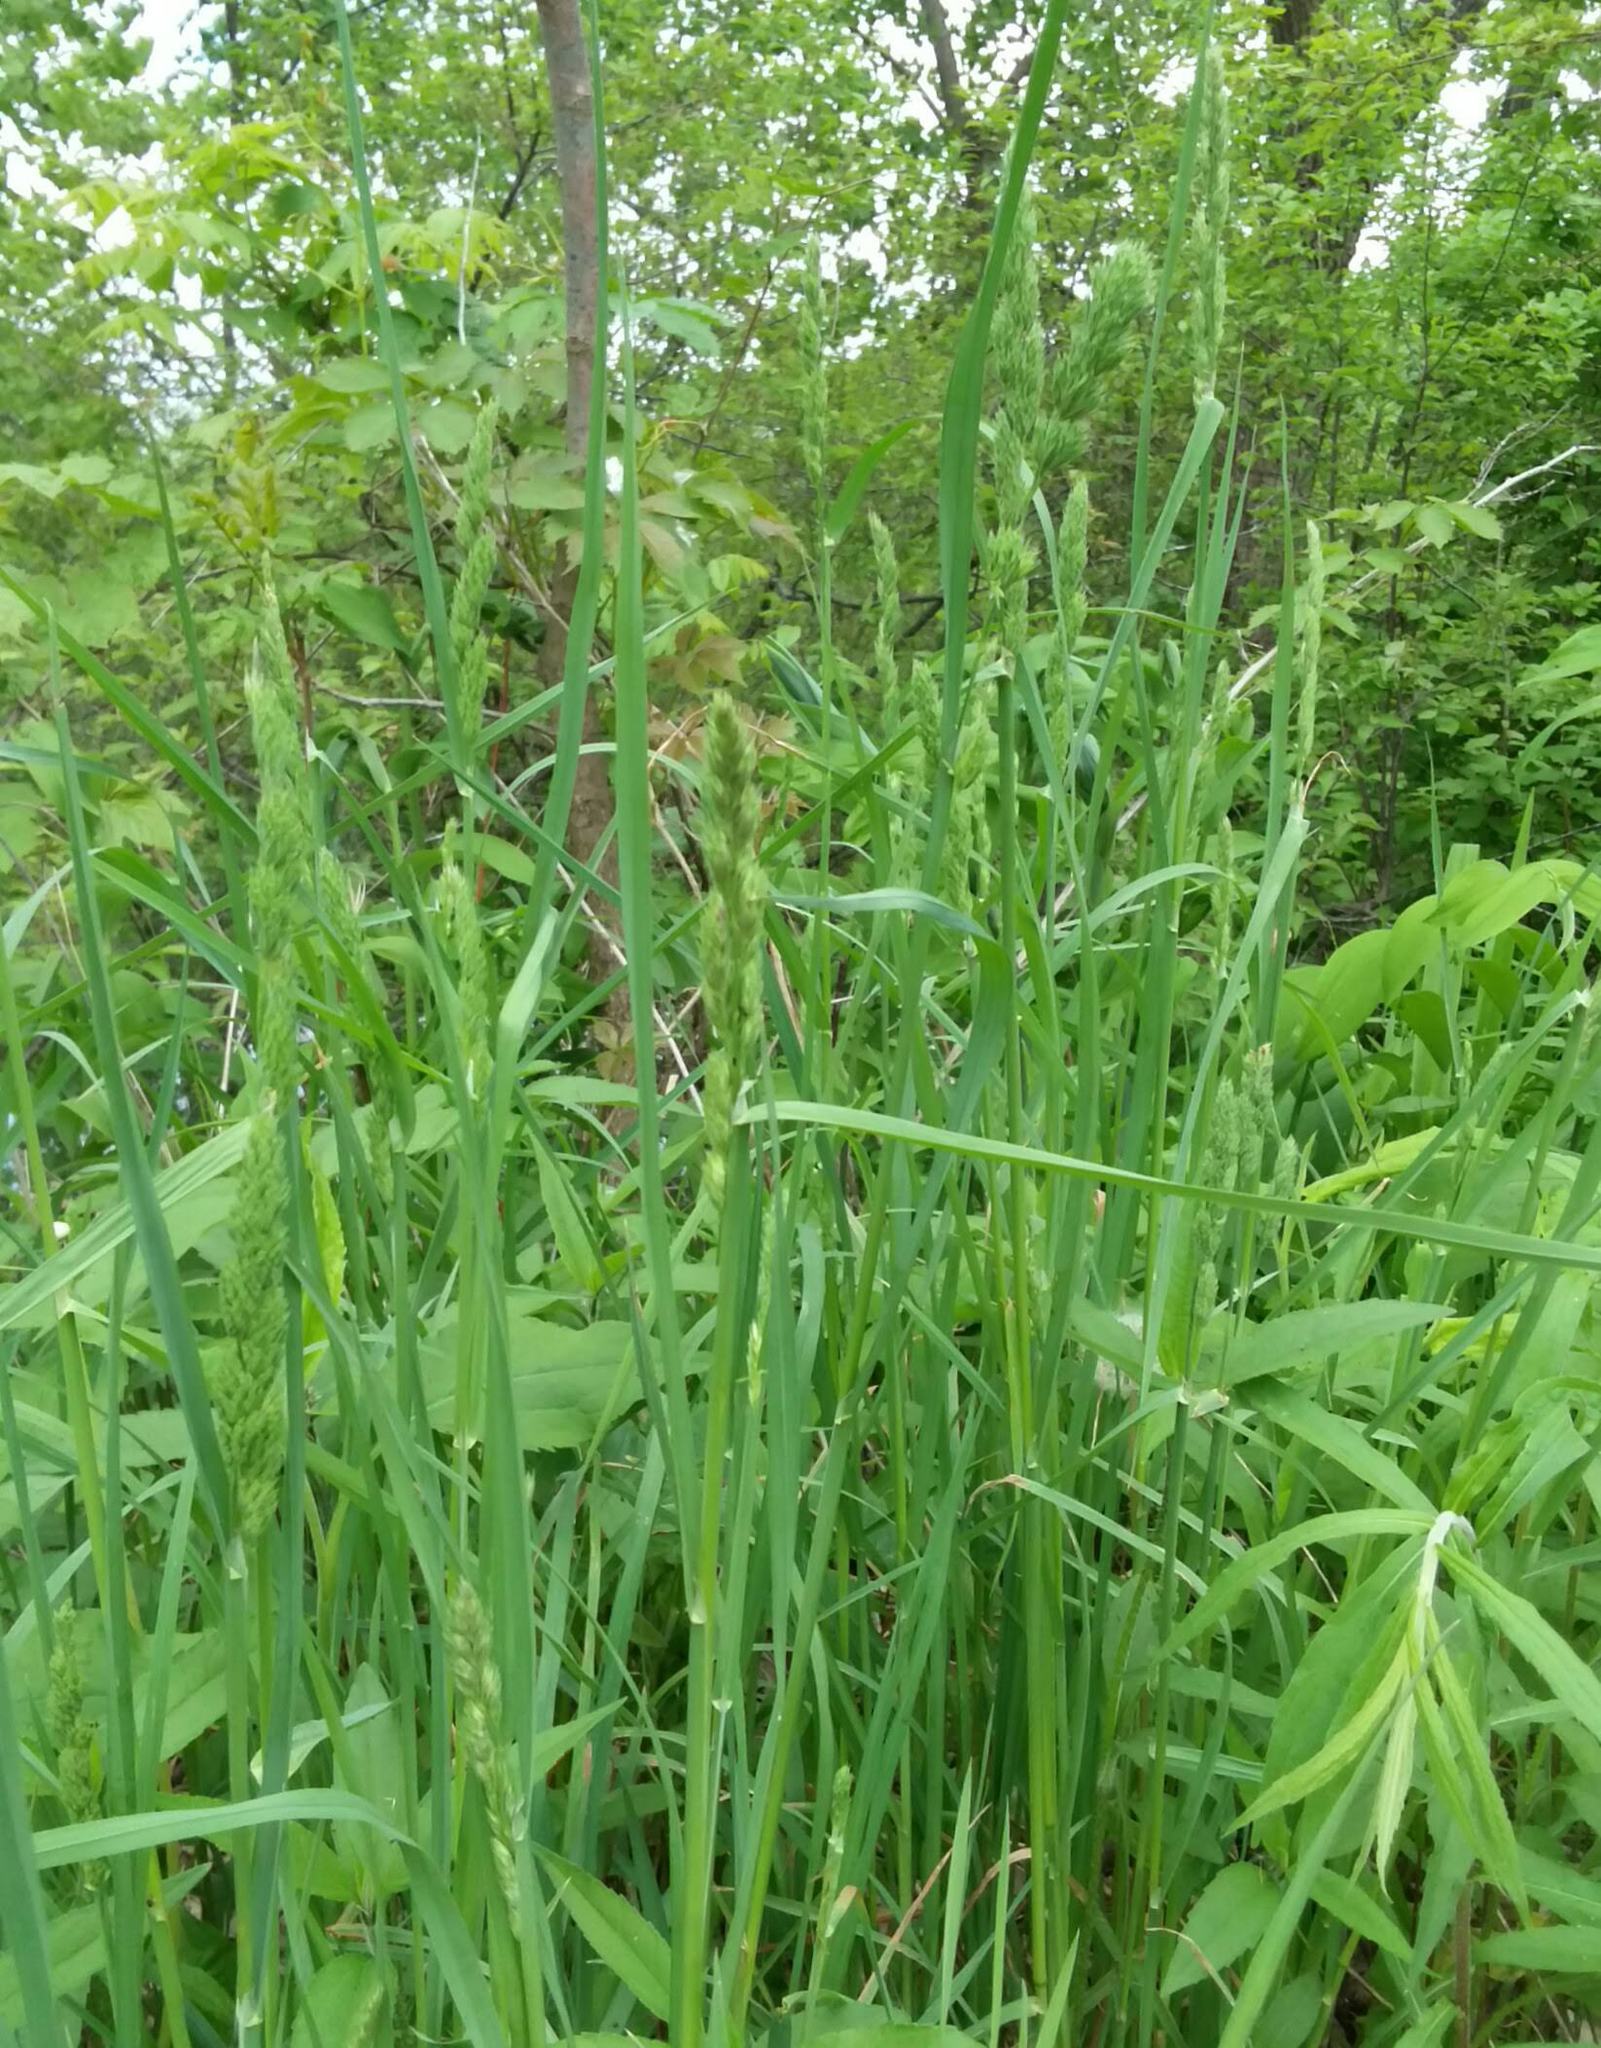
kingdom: Plantae
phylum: Tracheophyta
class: Liliopsida
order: Poales
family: Poaceae
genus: Dactylis
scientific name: Dactylis glomerata
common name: Orchardgrass
